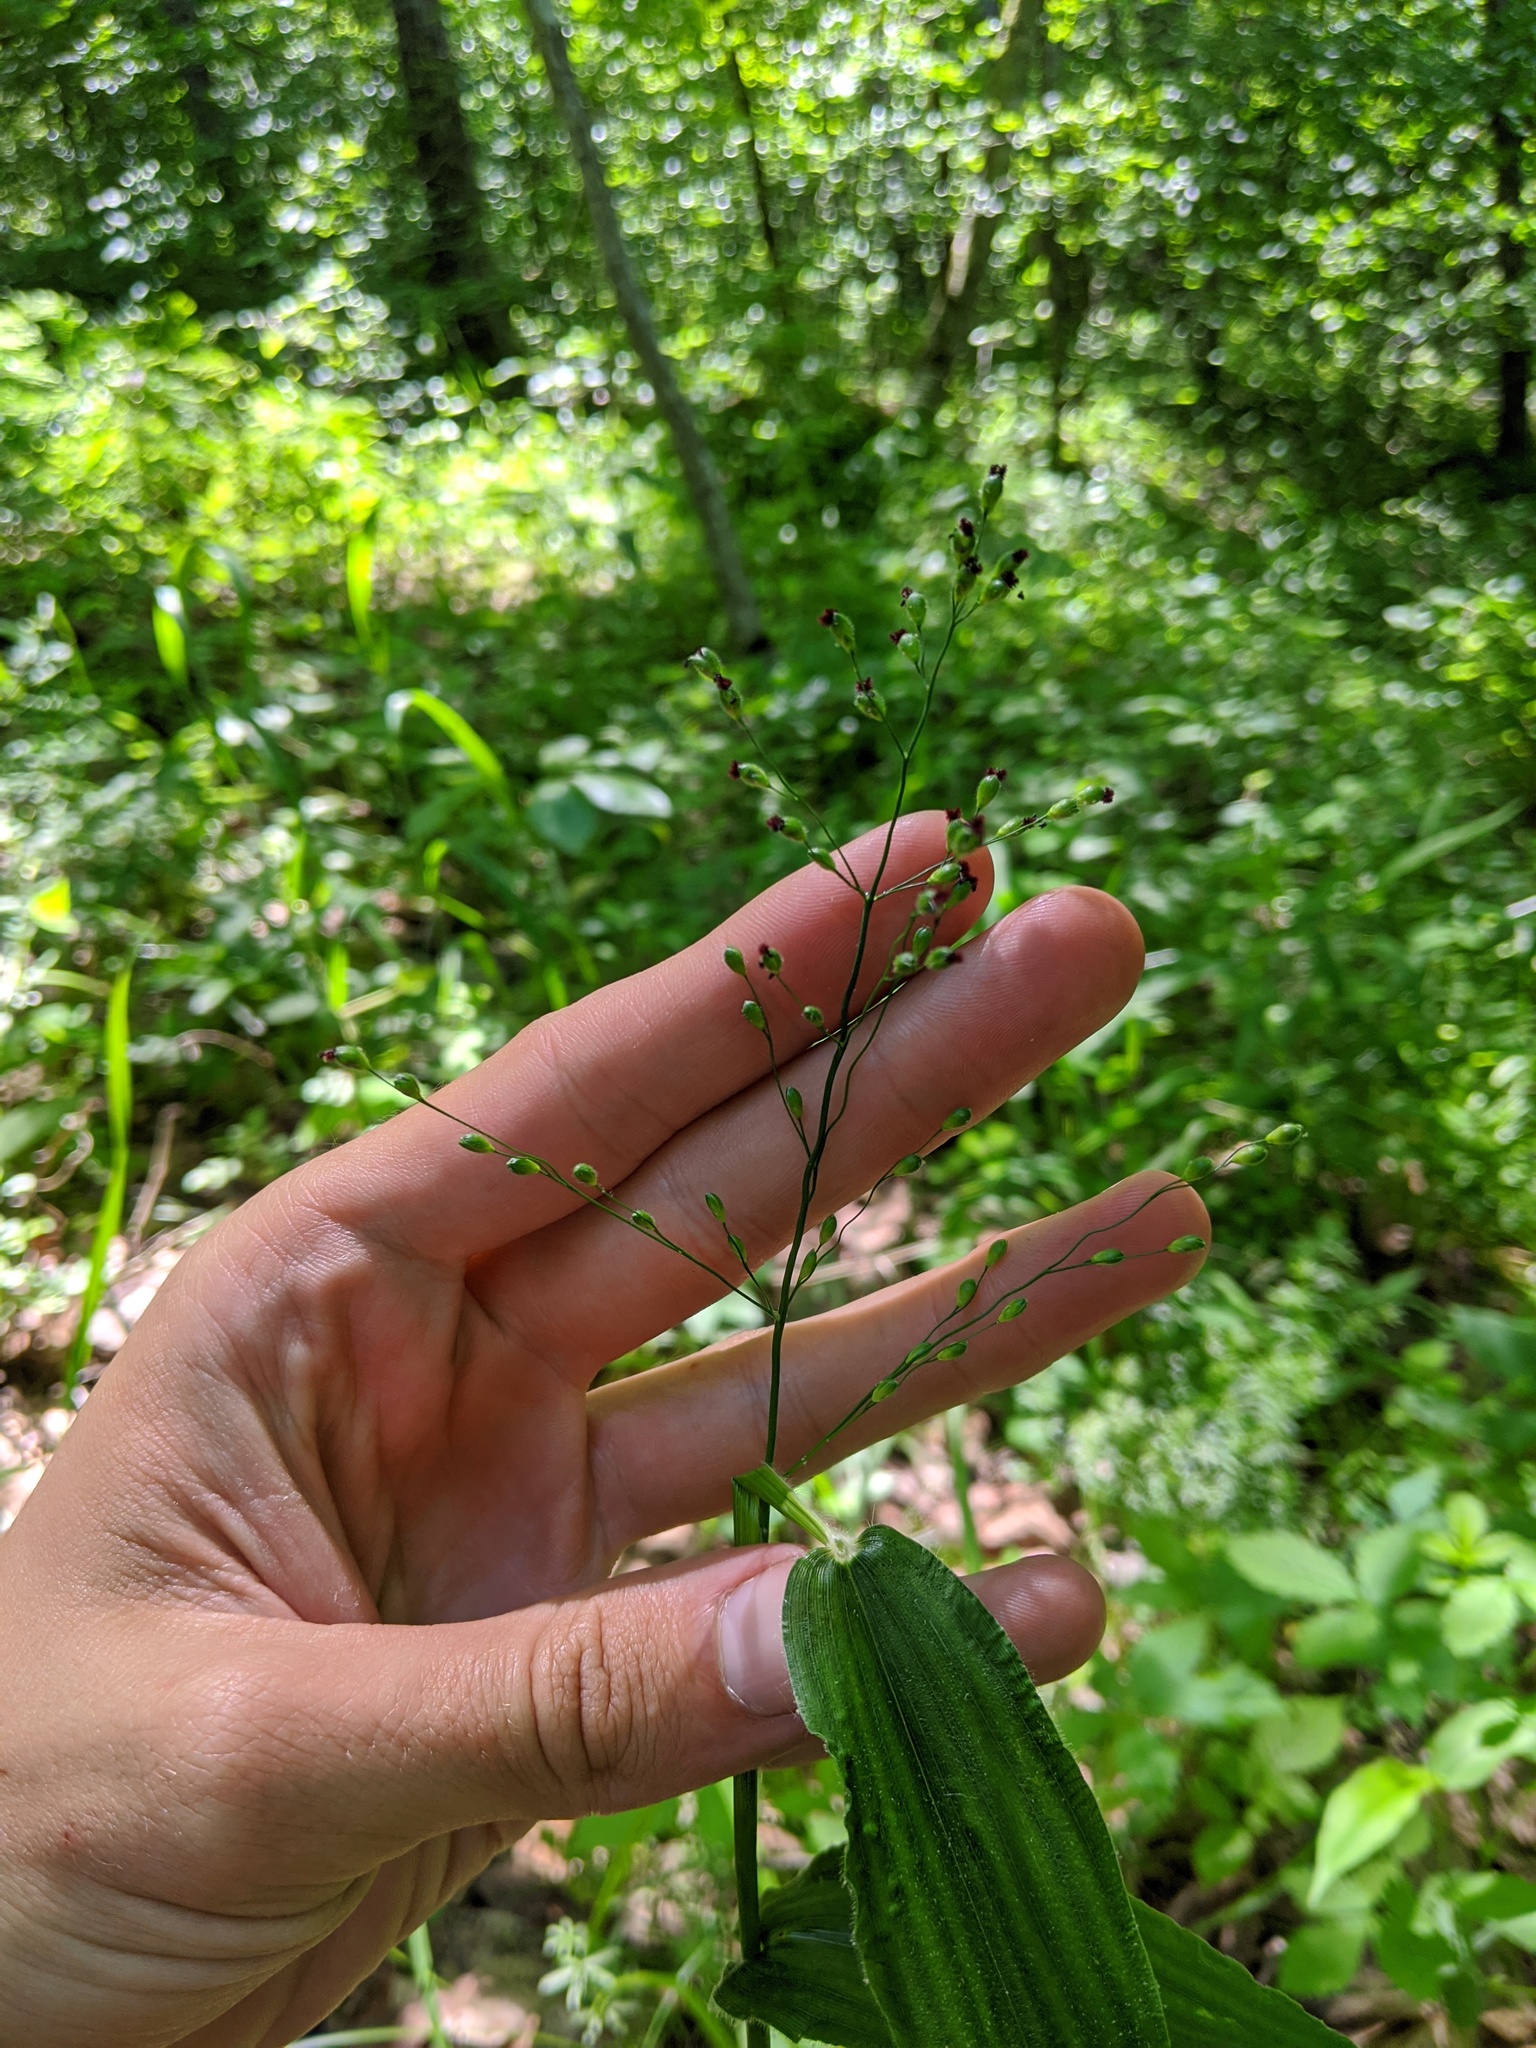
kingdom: Plantae
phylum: Tracheophyta
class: Liliopsida
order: Poales
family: Poaceae
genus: Dichanthelium
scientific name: Dichanthelium latifolium
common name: Broad-leaved panicgrass
